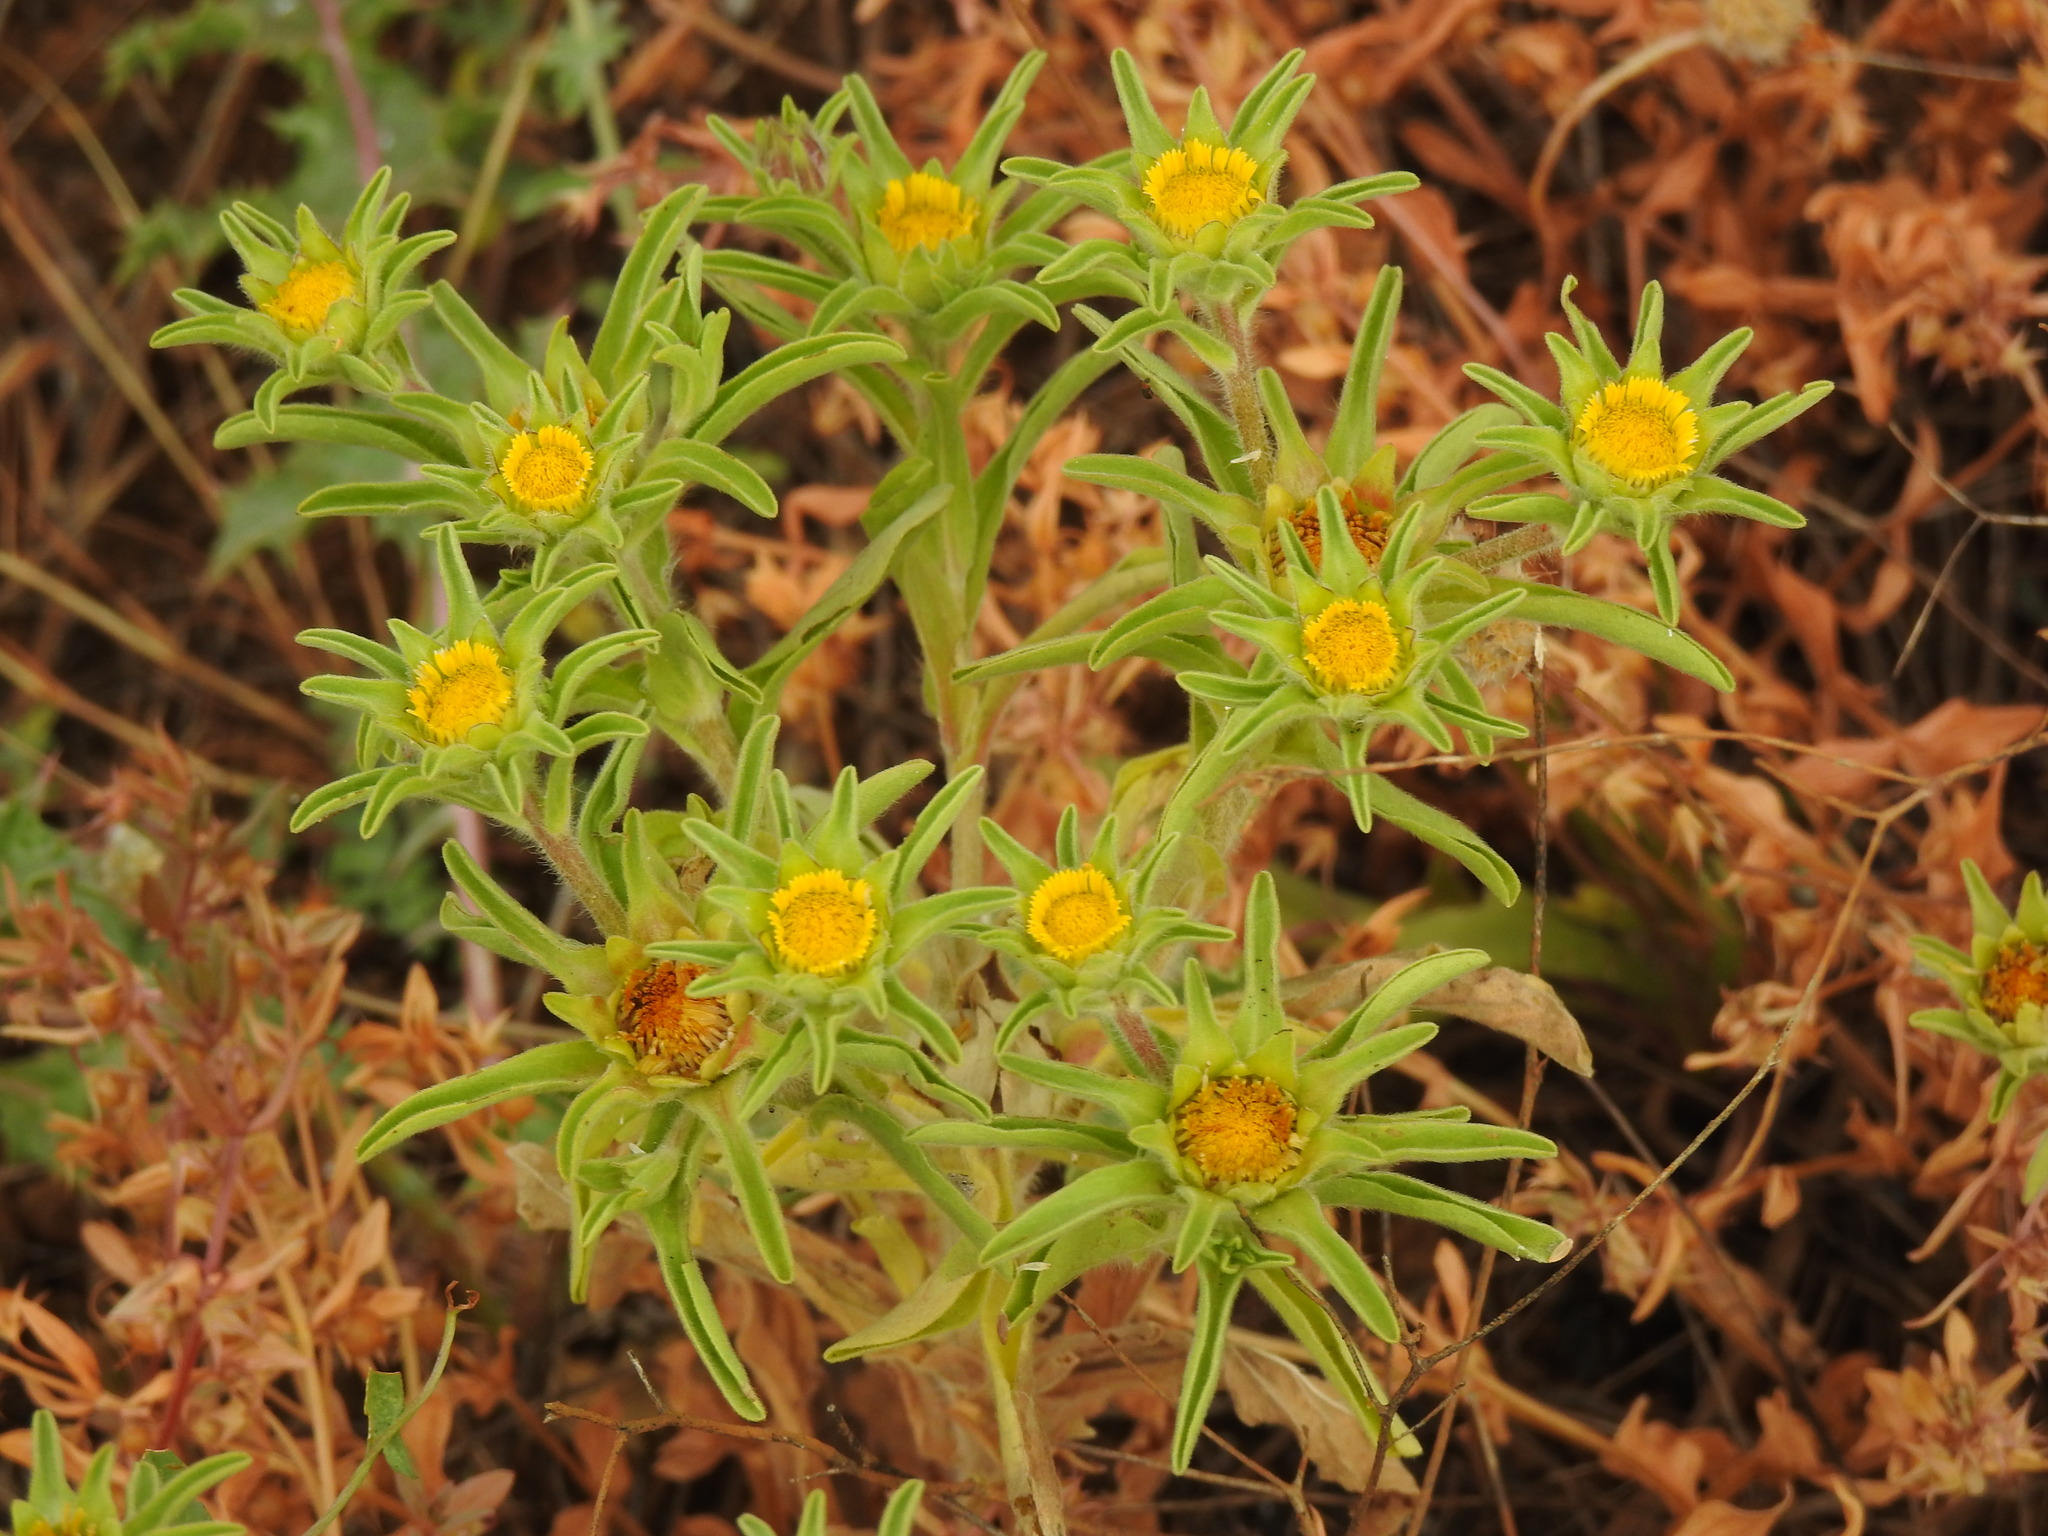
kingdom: Plantae
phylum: Tracheophyta
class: Magnoliopsida
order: Asterales
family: Asteraceae
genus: Asteriscus
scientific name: Asteriscus aquaticus
